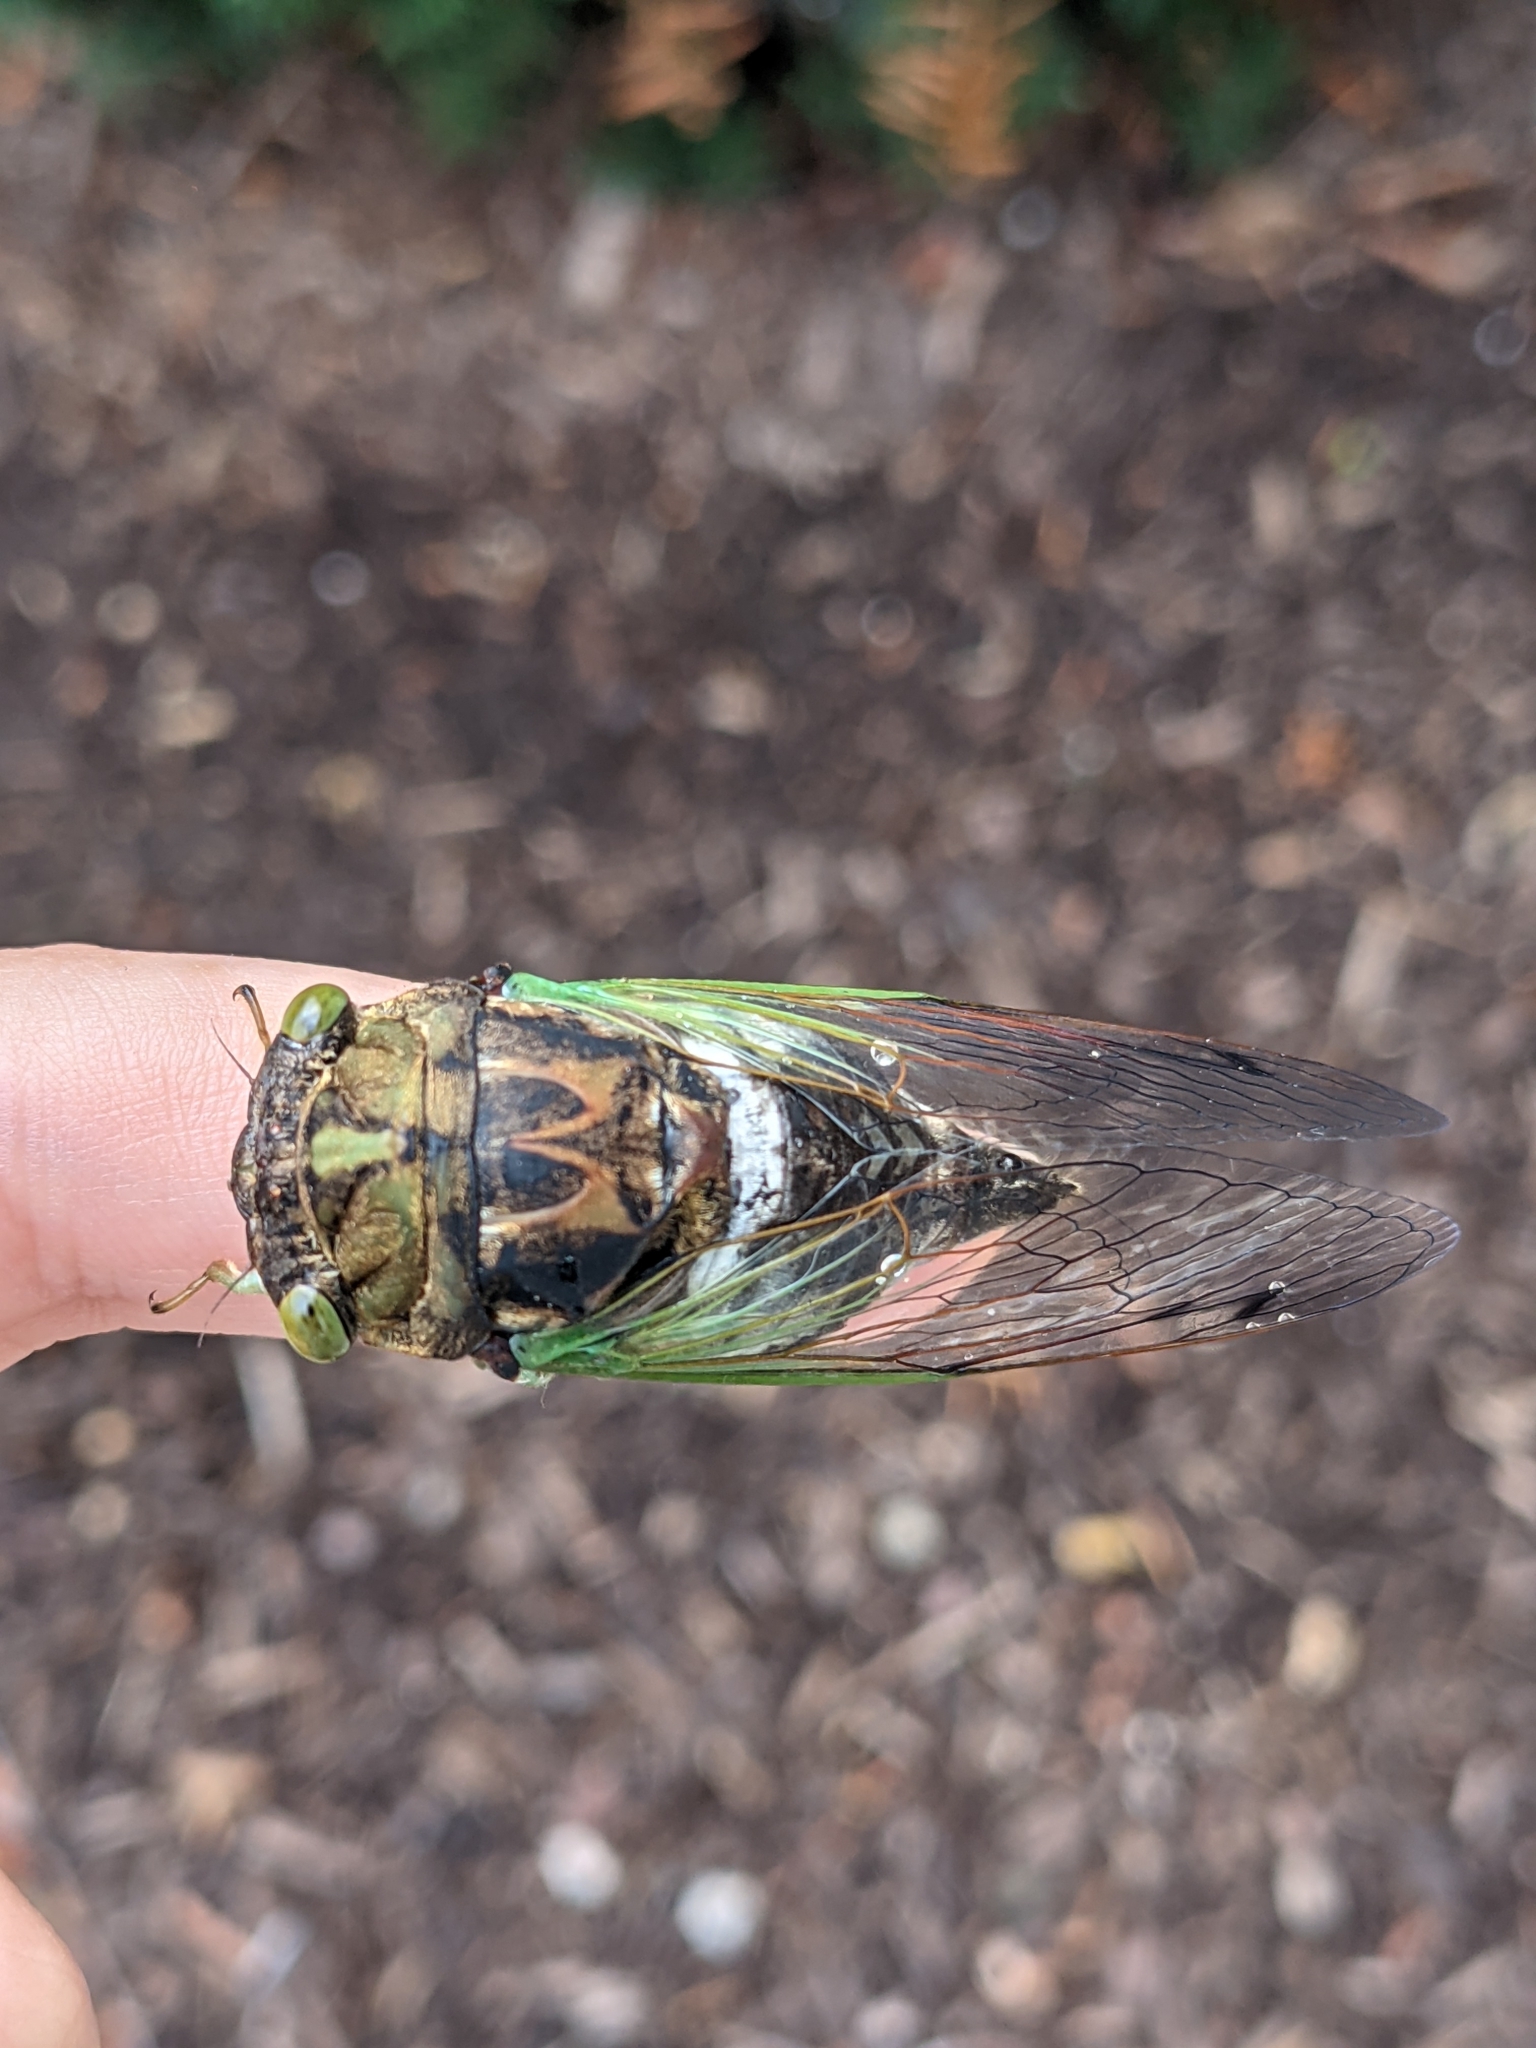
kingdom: Animalia
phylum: Arthropoda
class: Insecta
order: Hemiptera
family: Cicadidae
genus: Neotibicen
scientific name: Neotibicen tibicen
